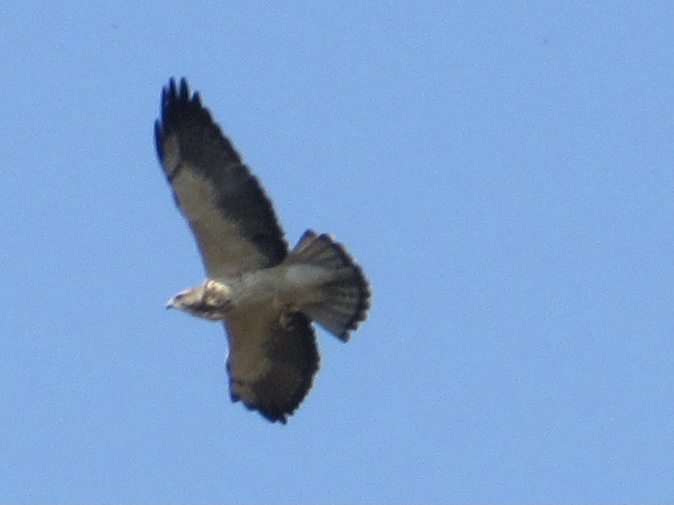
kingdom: Animalia
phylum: Chordata
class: Aves
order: Accipitriformes
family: Accipitridae
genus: Buteo
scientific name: Buteo swainsoni
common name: Swainson's hawk
